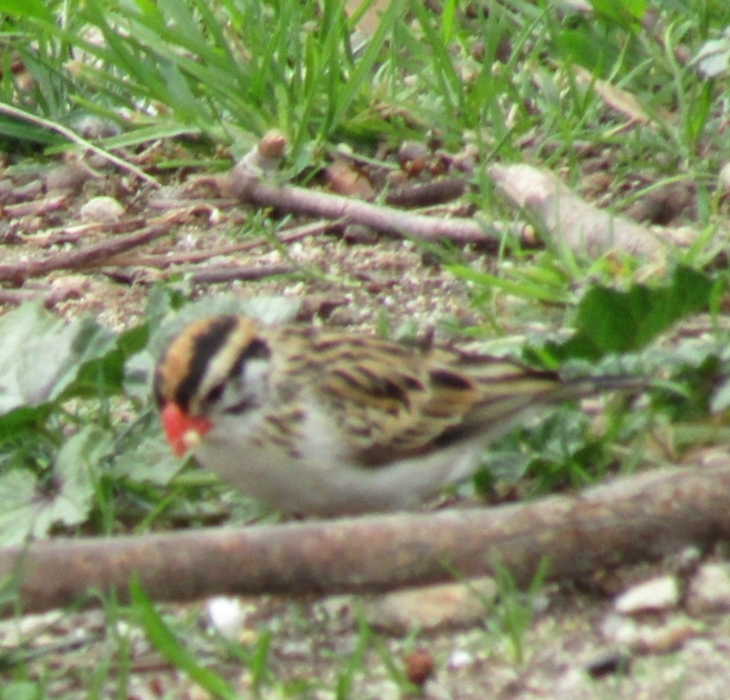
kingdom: Animalia
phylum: Chordata
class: Aves
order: Passeriformes
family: Viduidae
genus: Vidua
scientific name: Vidua macroura
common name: Pin-tailed whydah
